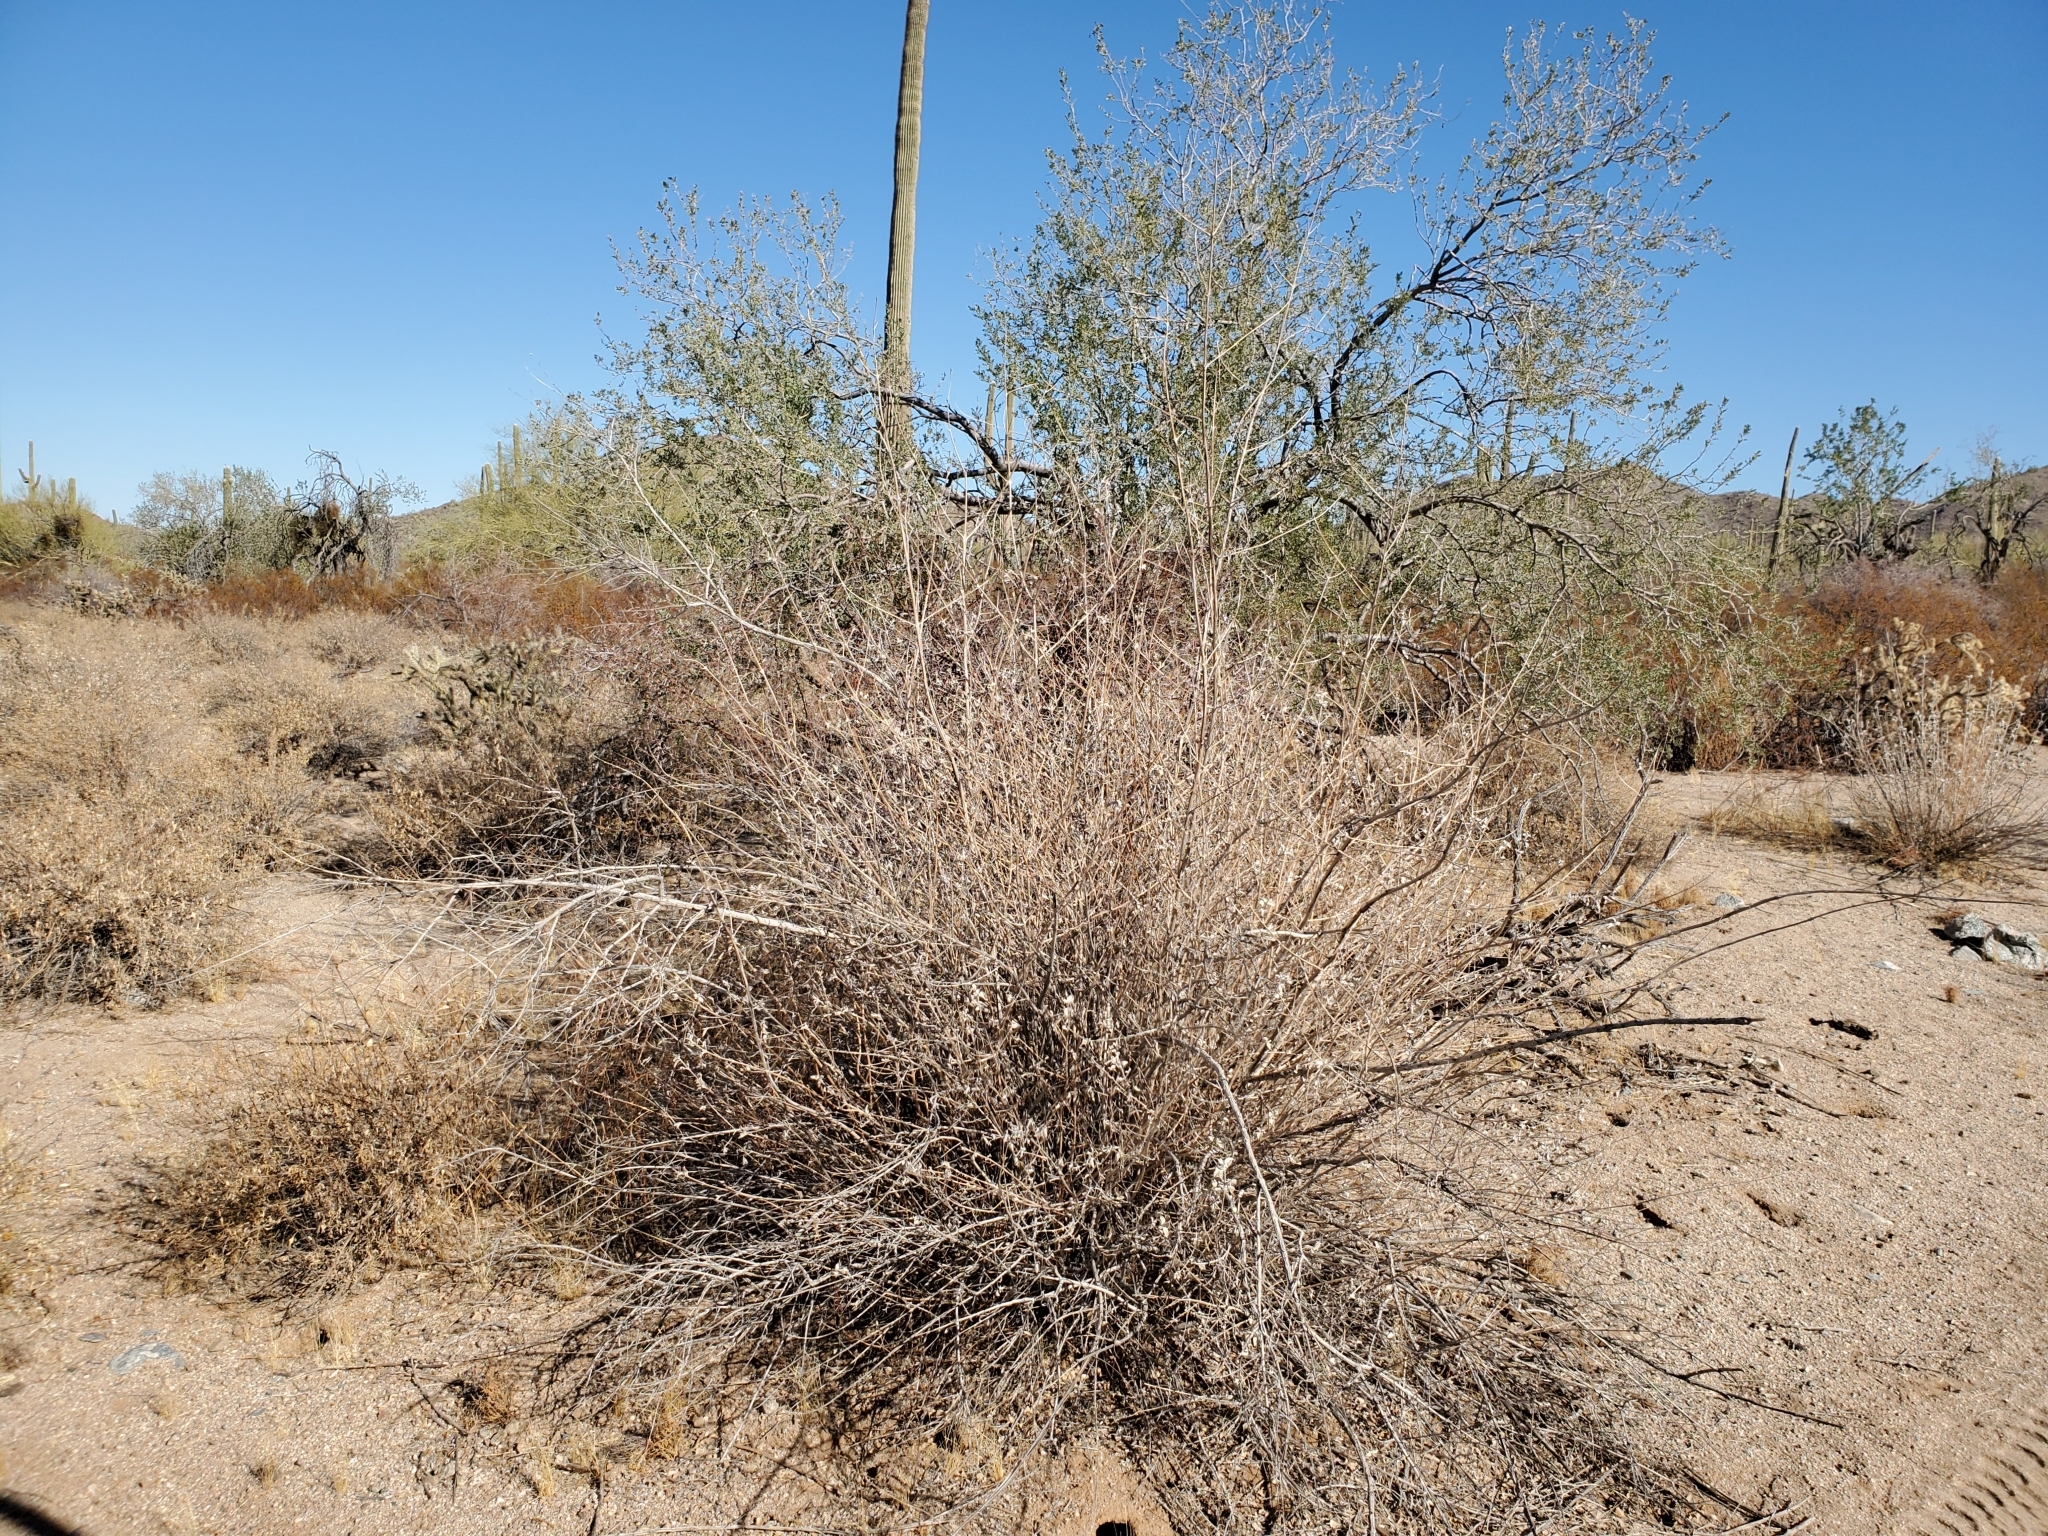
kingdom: Plantae
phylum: Tracheophyta
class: Magnoliopsida
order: Asterales
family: Asteraceae
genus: Ambrosia
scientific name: Ambrosia deltoidea
